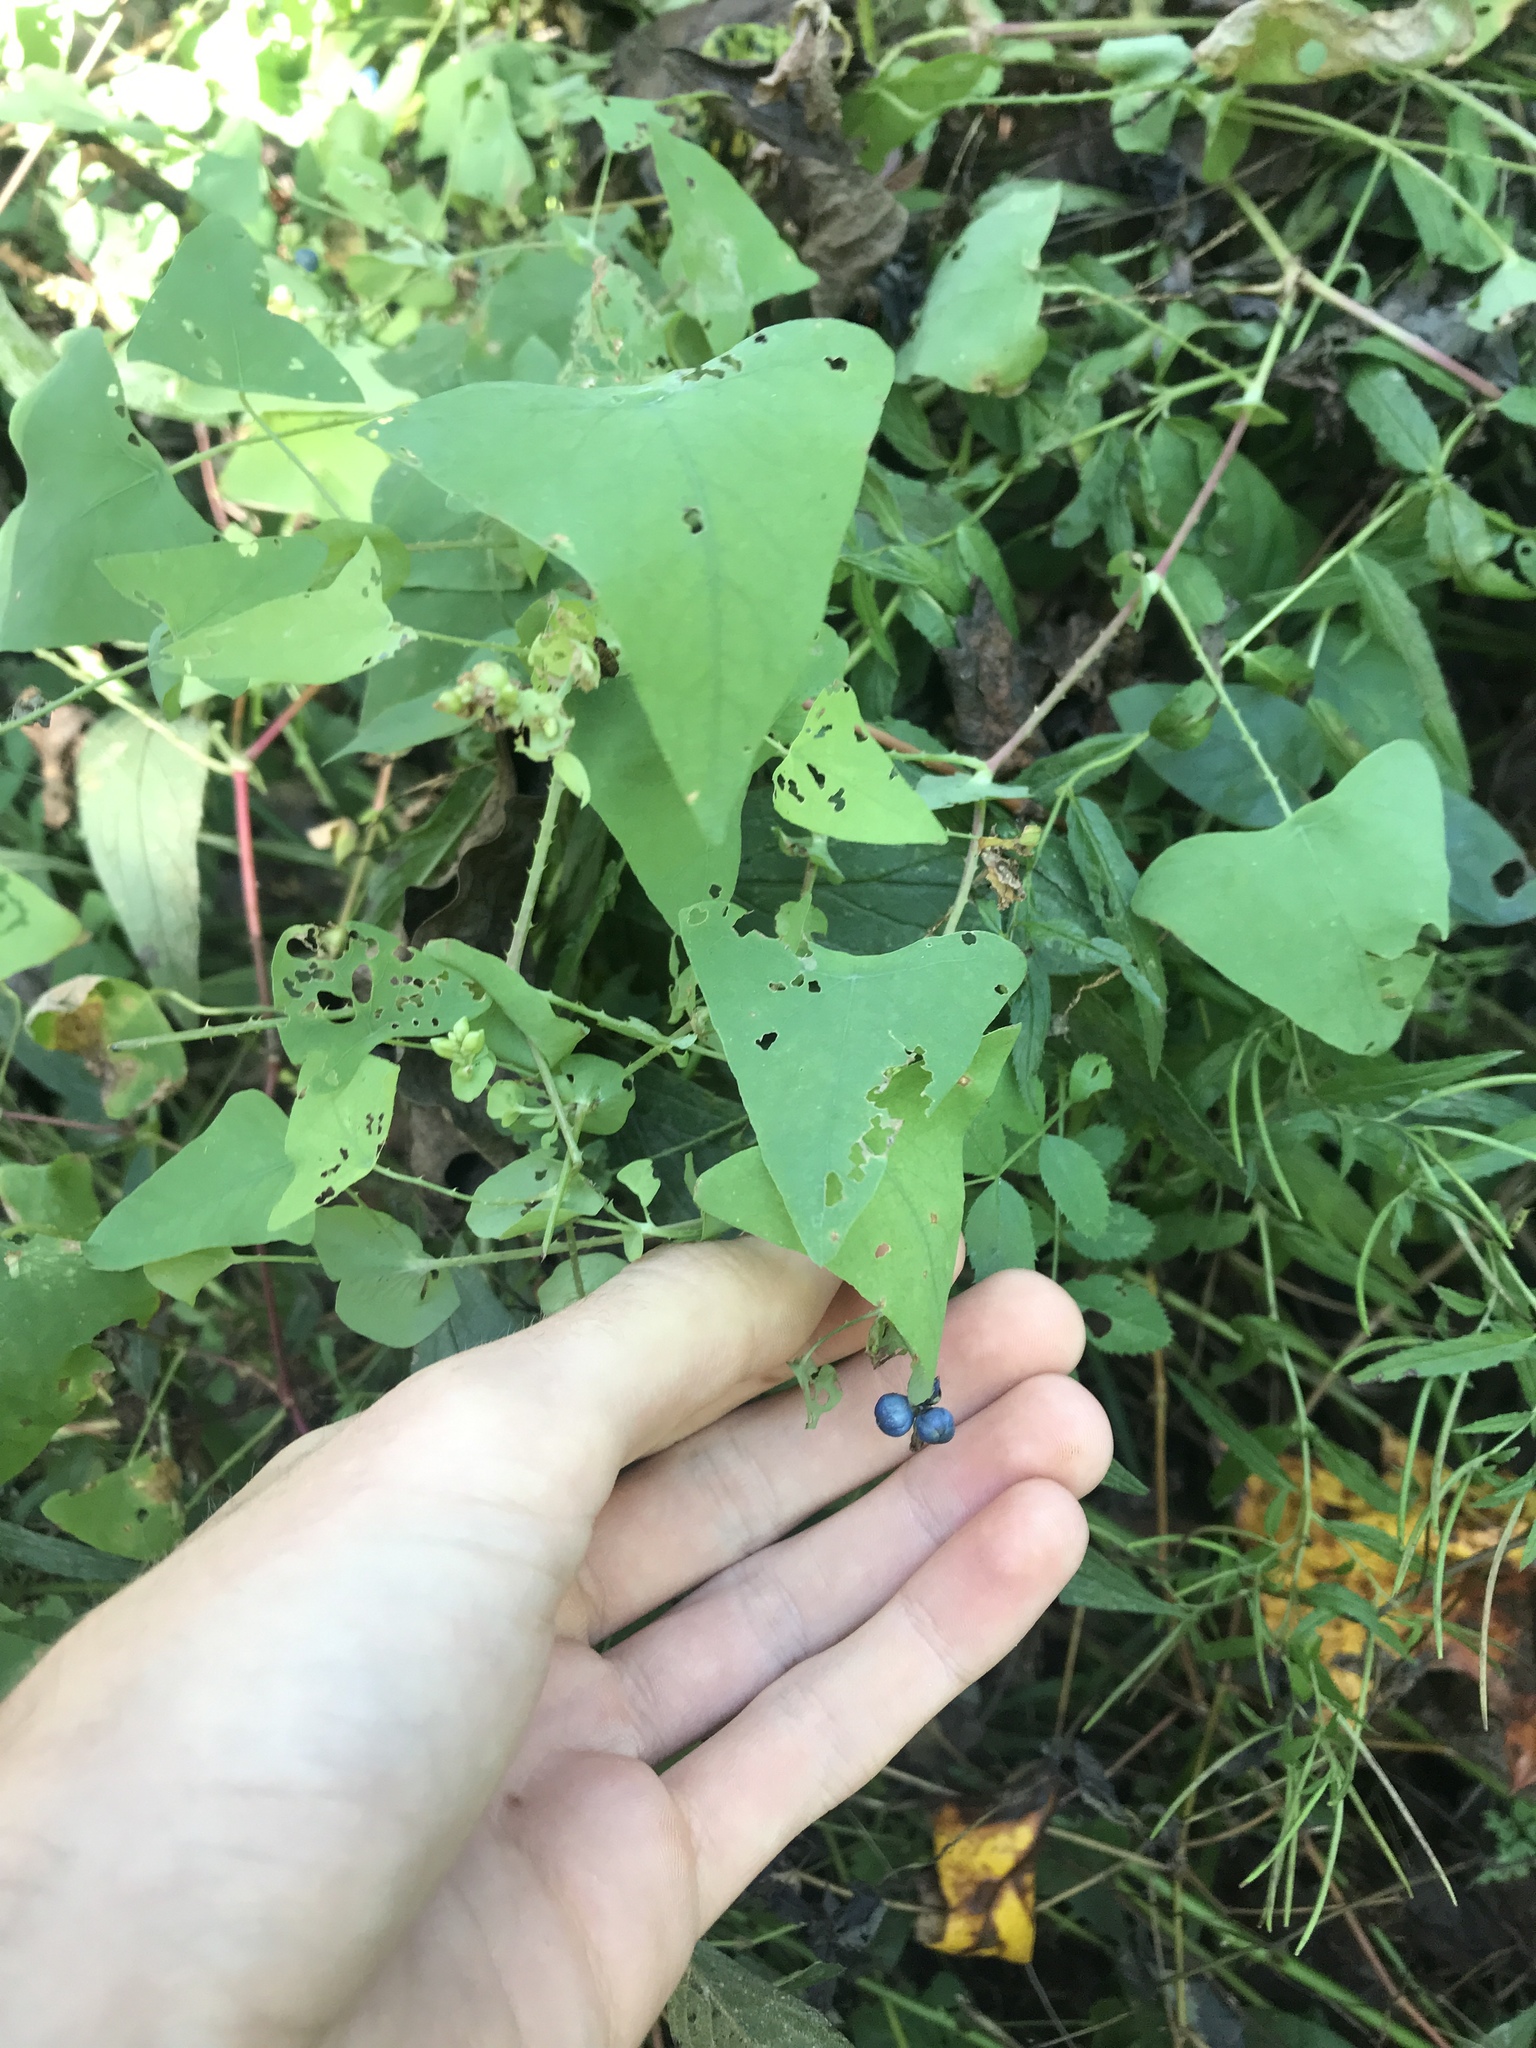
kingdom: Plantae
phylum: Tracheophyta
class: Magnoliopsida
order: Caryophyllales
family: Polygonaceae
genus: Persicaria
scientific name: Persicaria perfoliata
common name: Asiatic tearthumb
